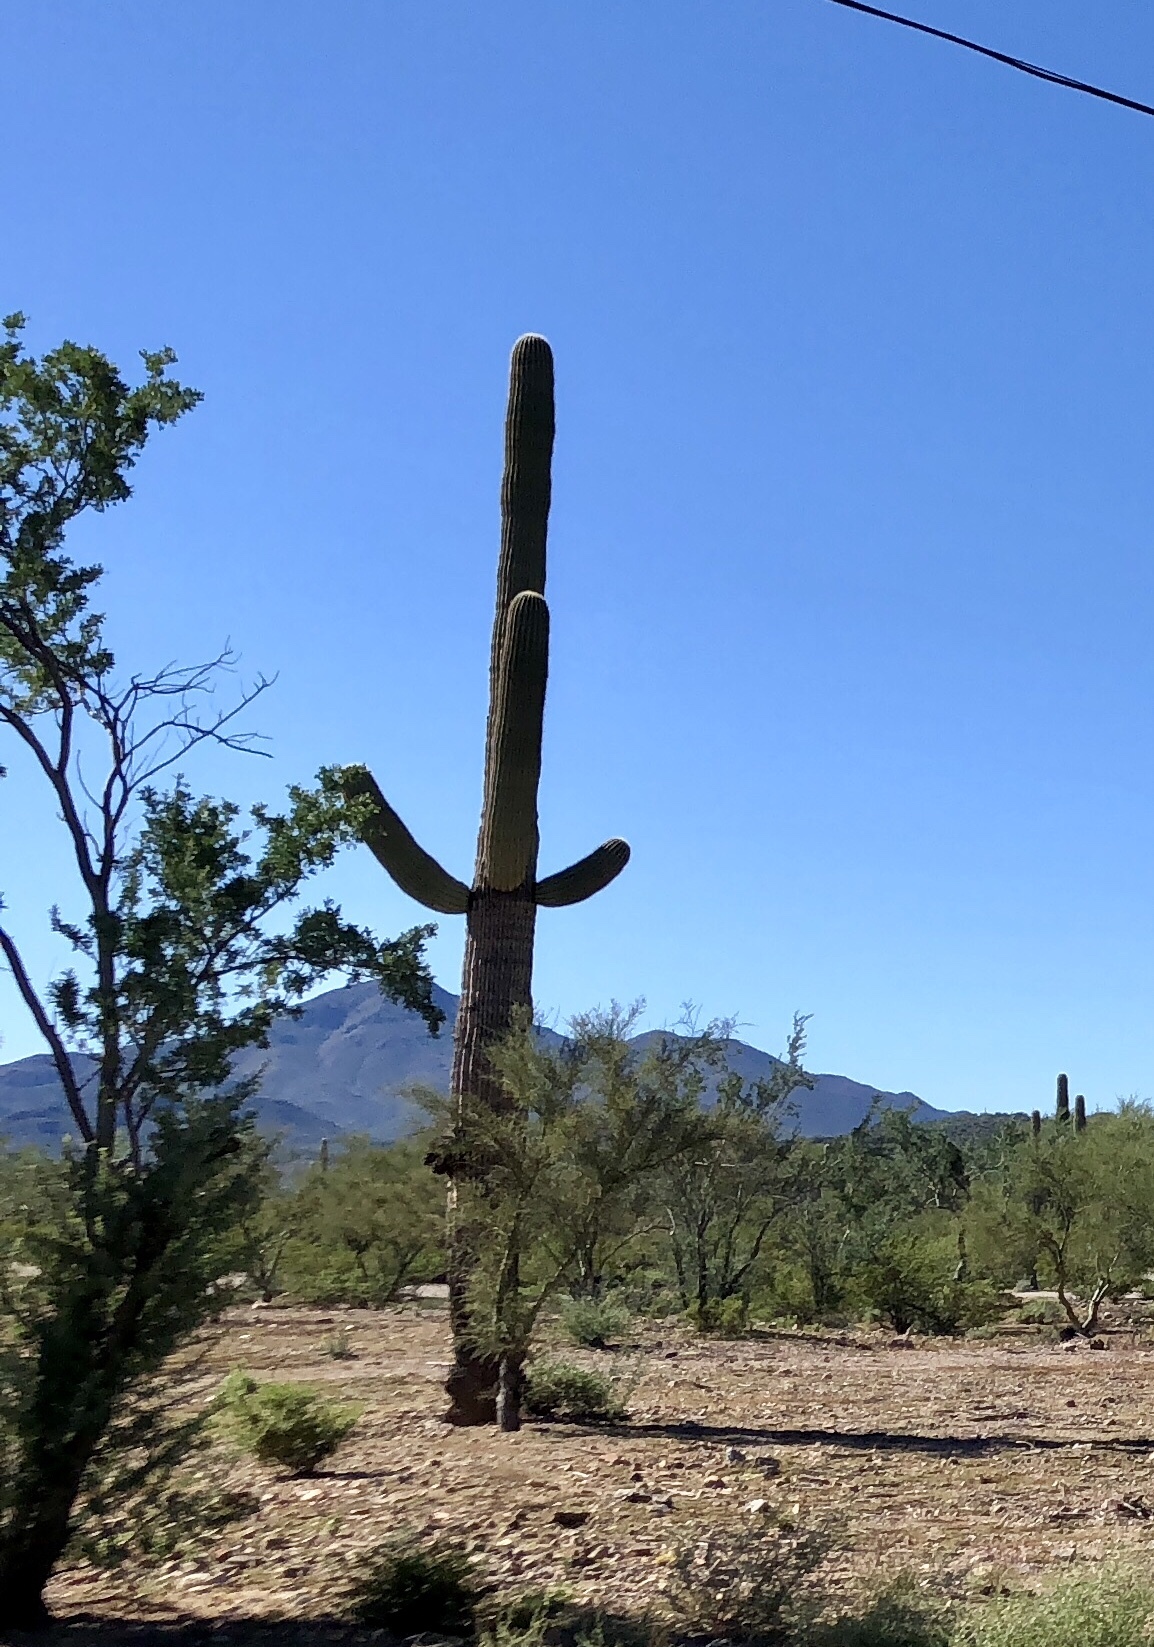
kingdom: Plantae
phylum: Tracheophyta
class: Magnoliopsida
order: Caryophyllales
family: Cactaceae
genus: Carnegiea
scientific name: Carnegiea gigantea
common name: Saguaro
